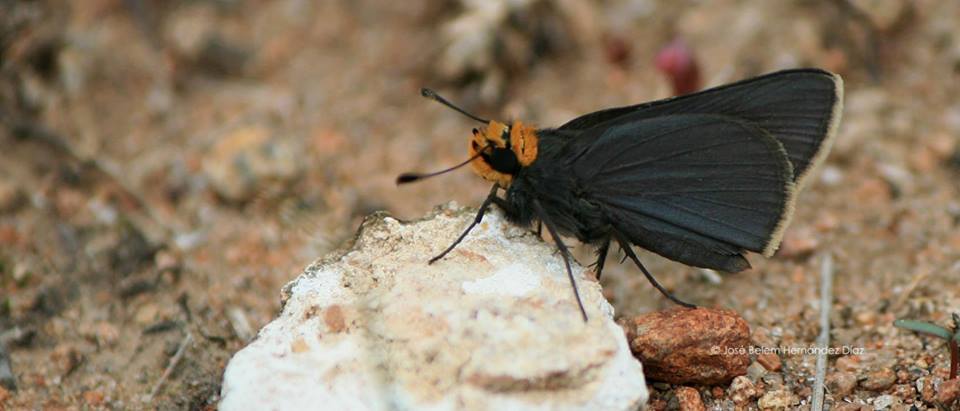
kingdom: Animalia
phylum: Arthropoda
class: Insecta
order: Lepidoptera
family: Hesperiidae
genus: Mastor
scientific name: Mastor phylace
